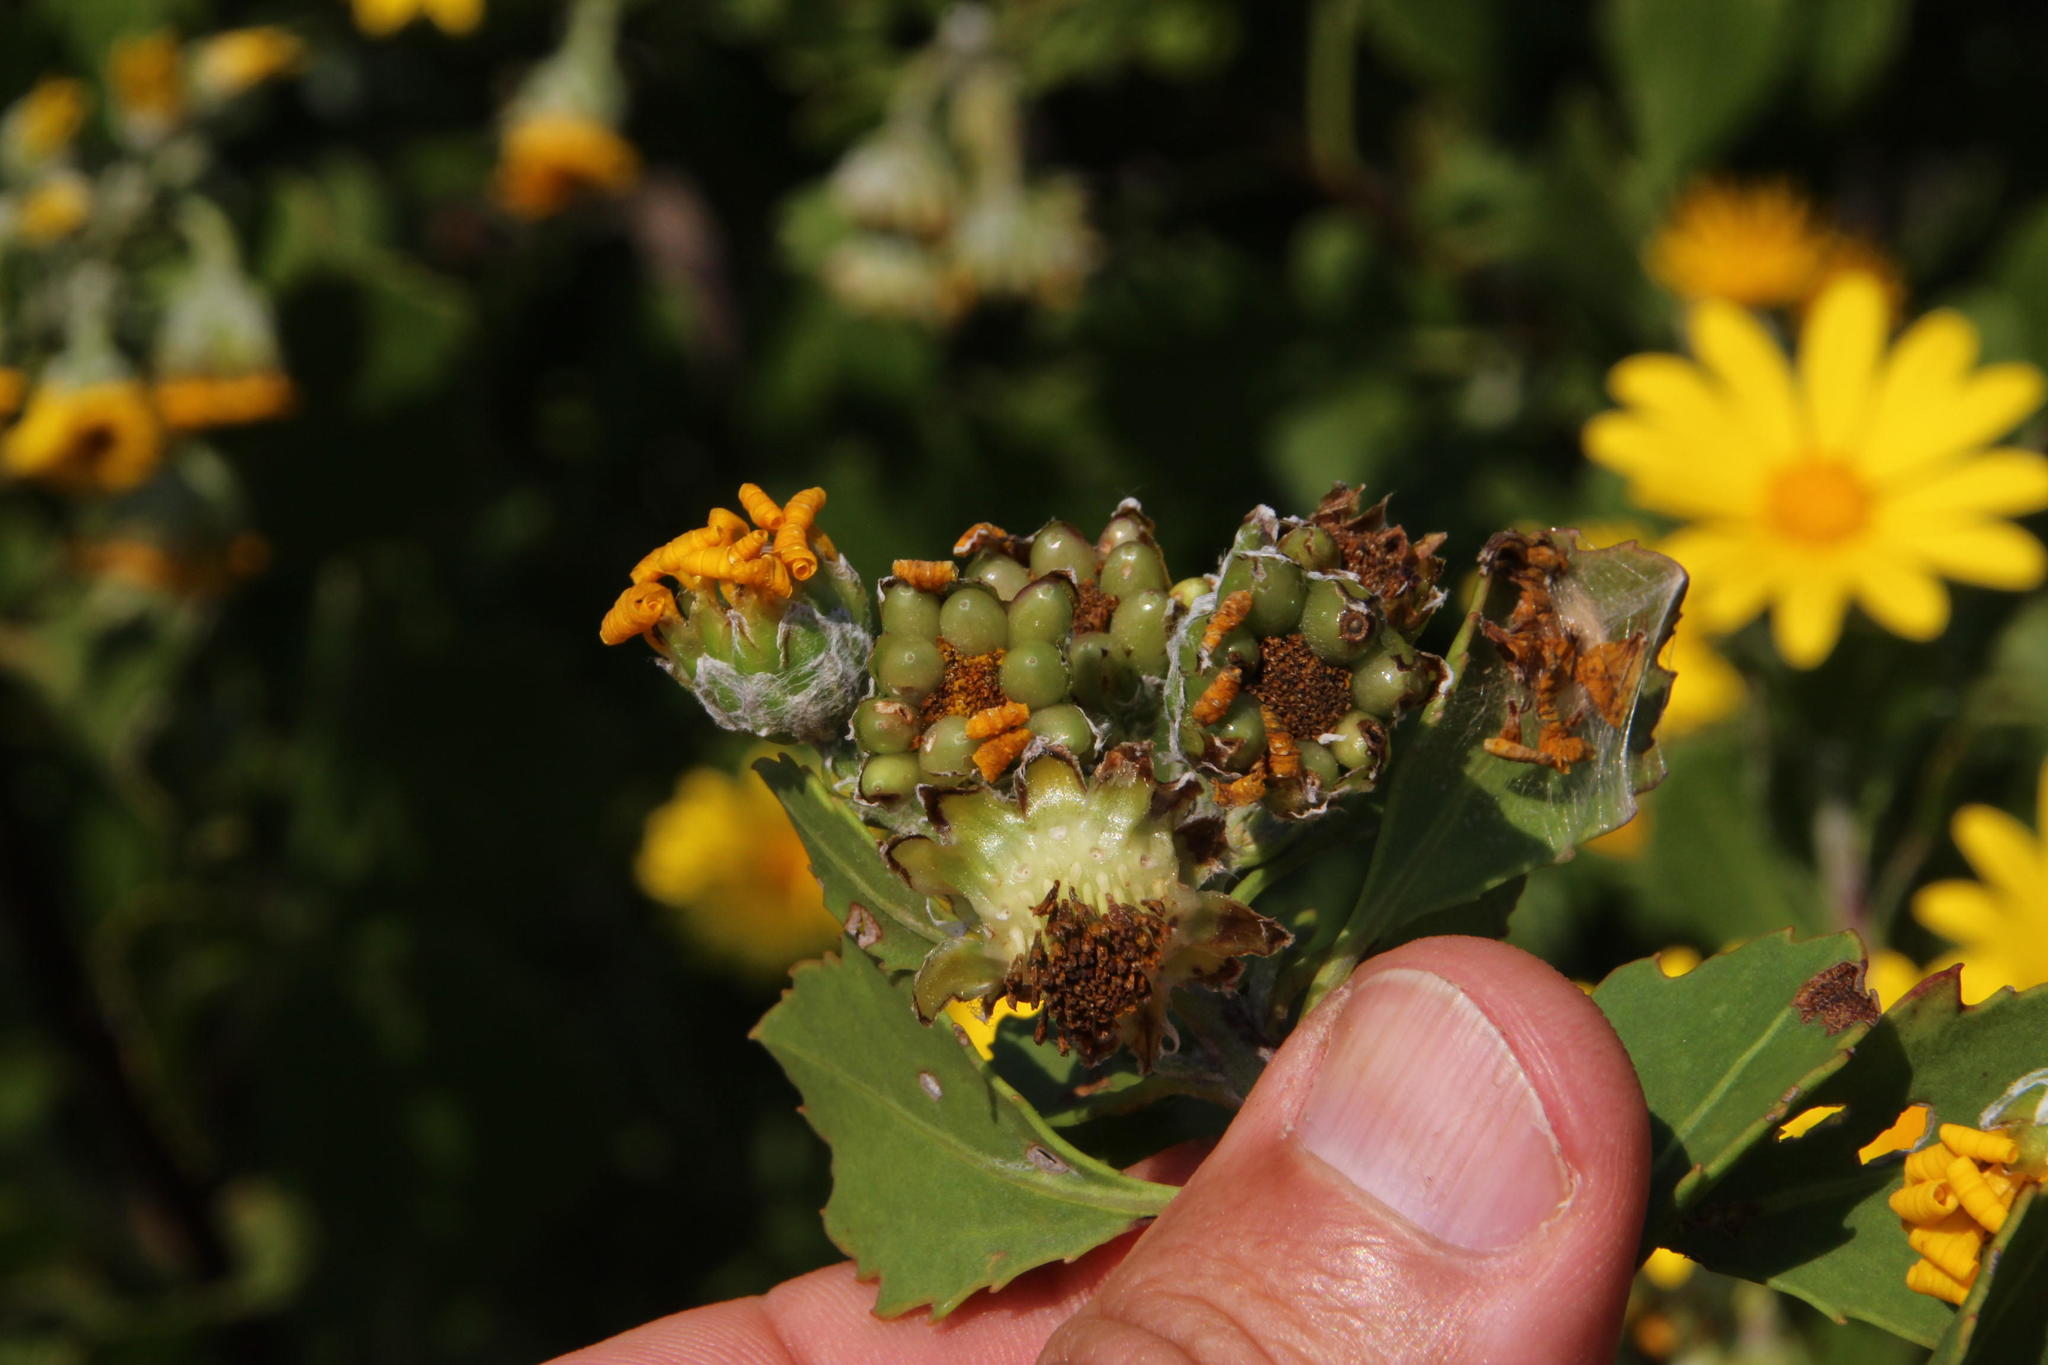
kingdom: Plantae
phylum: Tracheophyta
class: Magnoliopsida
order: Asterales
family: Asteraceae
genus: Osteospermum
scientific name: Osteospermum moniliferum
